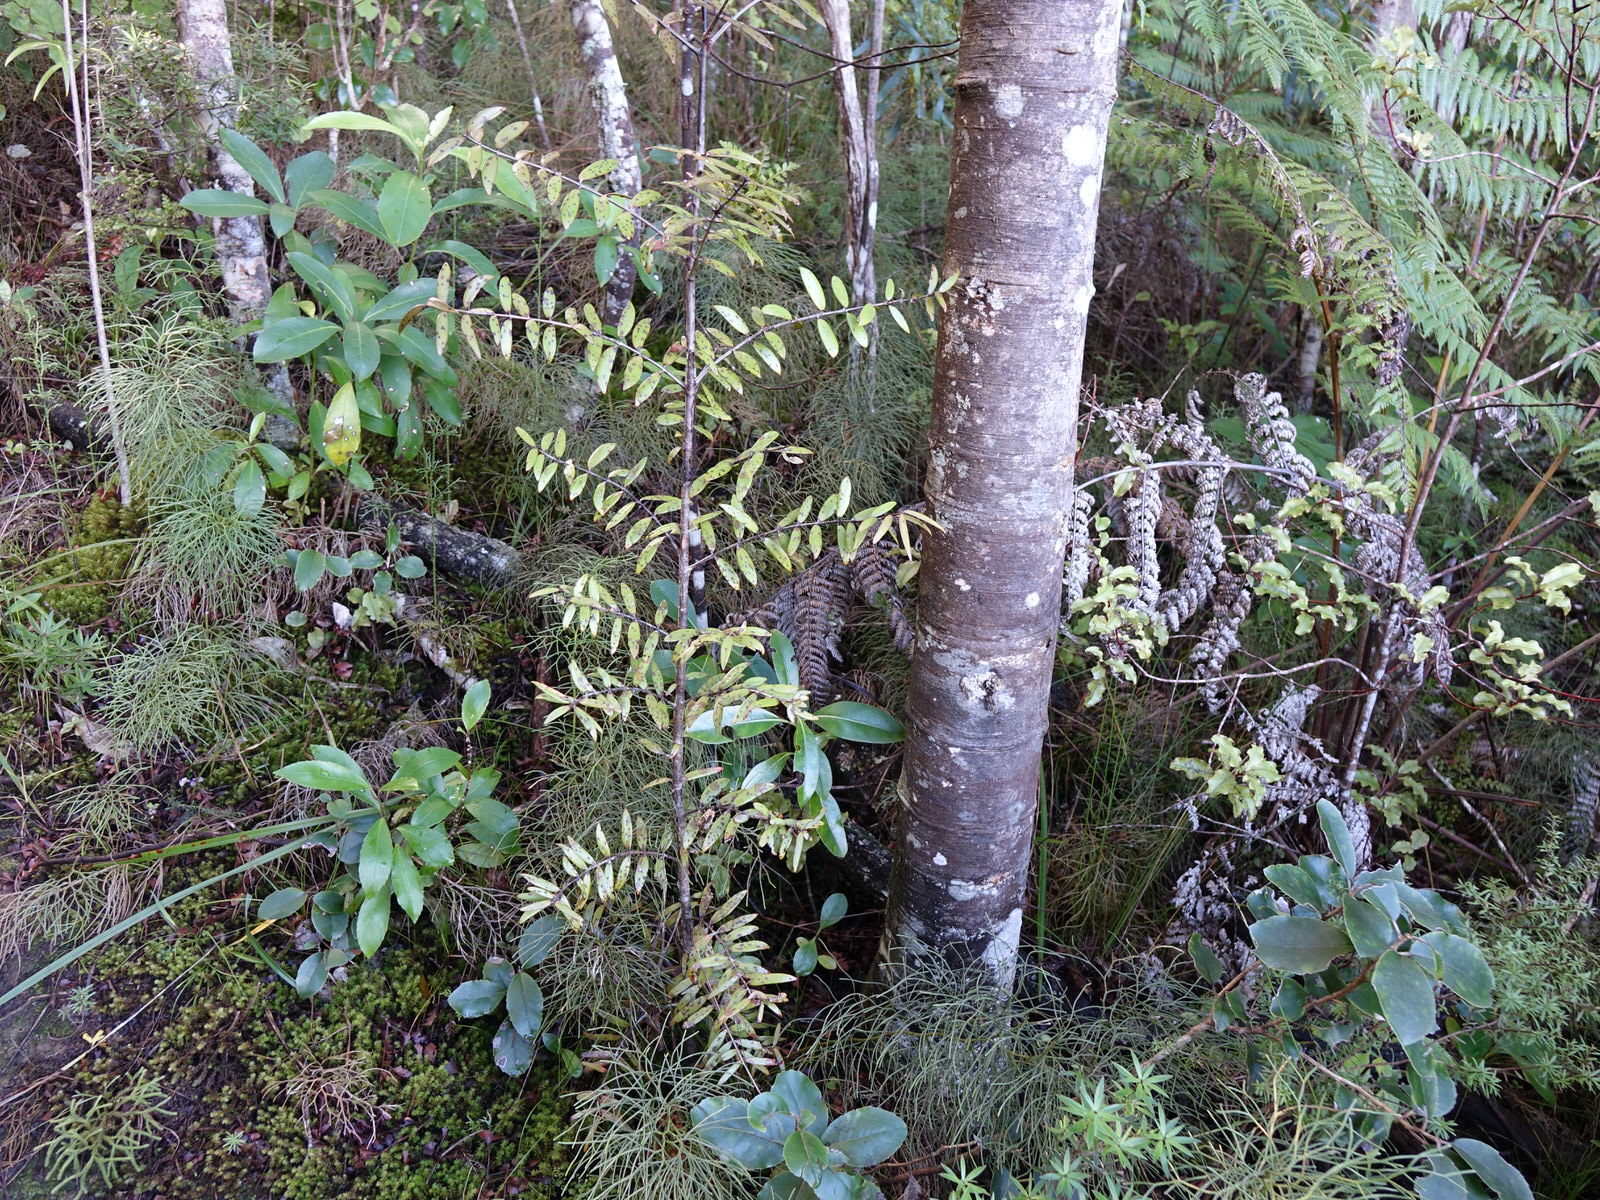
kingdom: Plantae
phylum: Tracheophyta
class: Pinopsida
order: Pinales
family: Araucariaceae
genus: Agathis
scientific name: Agathis australis
